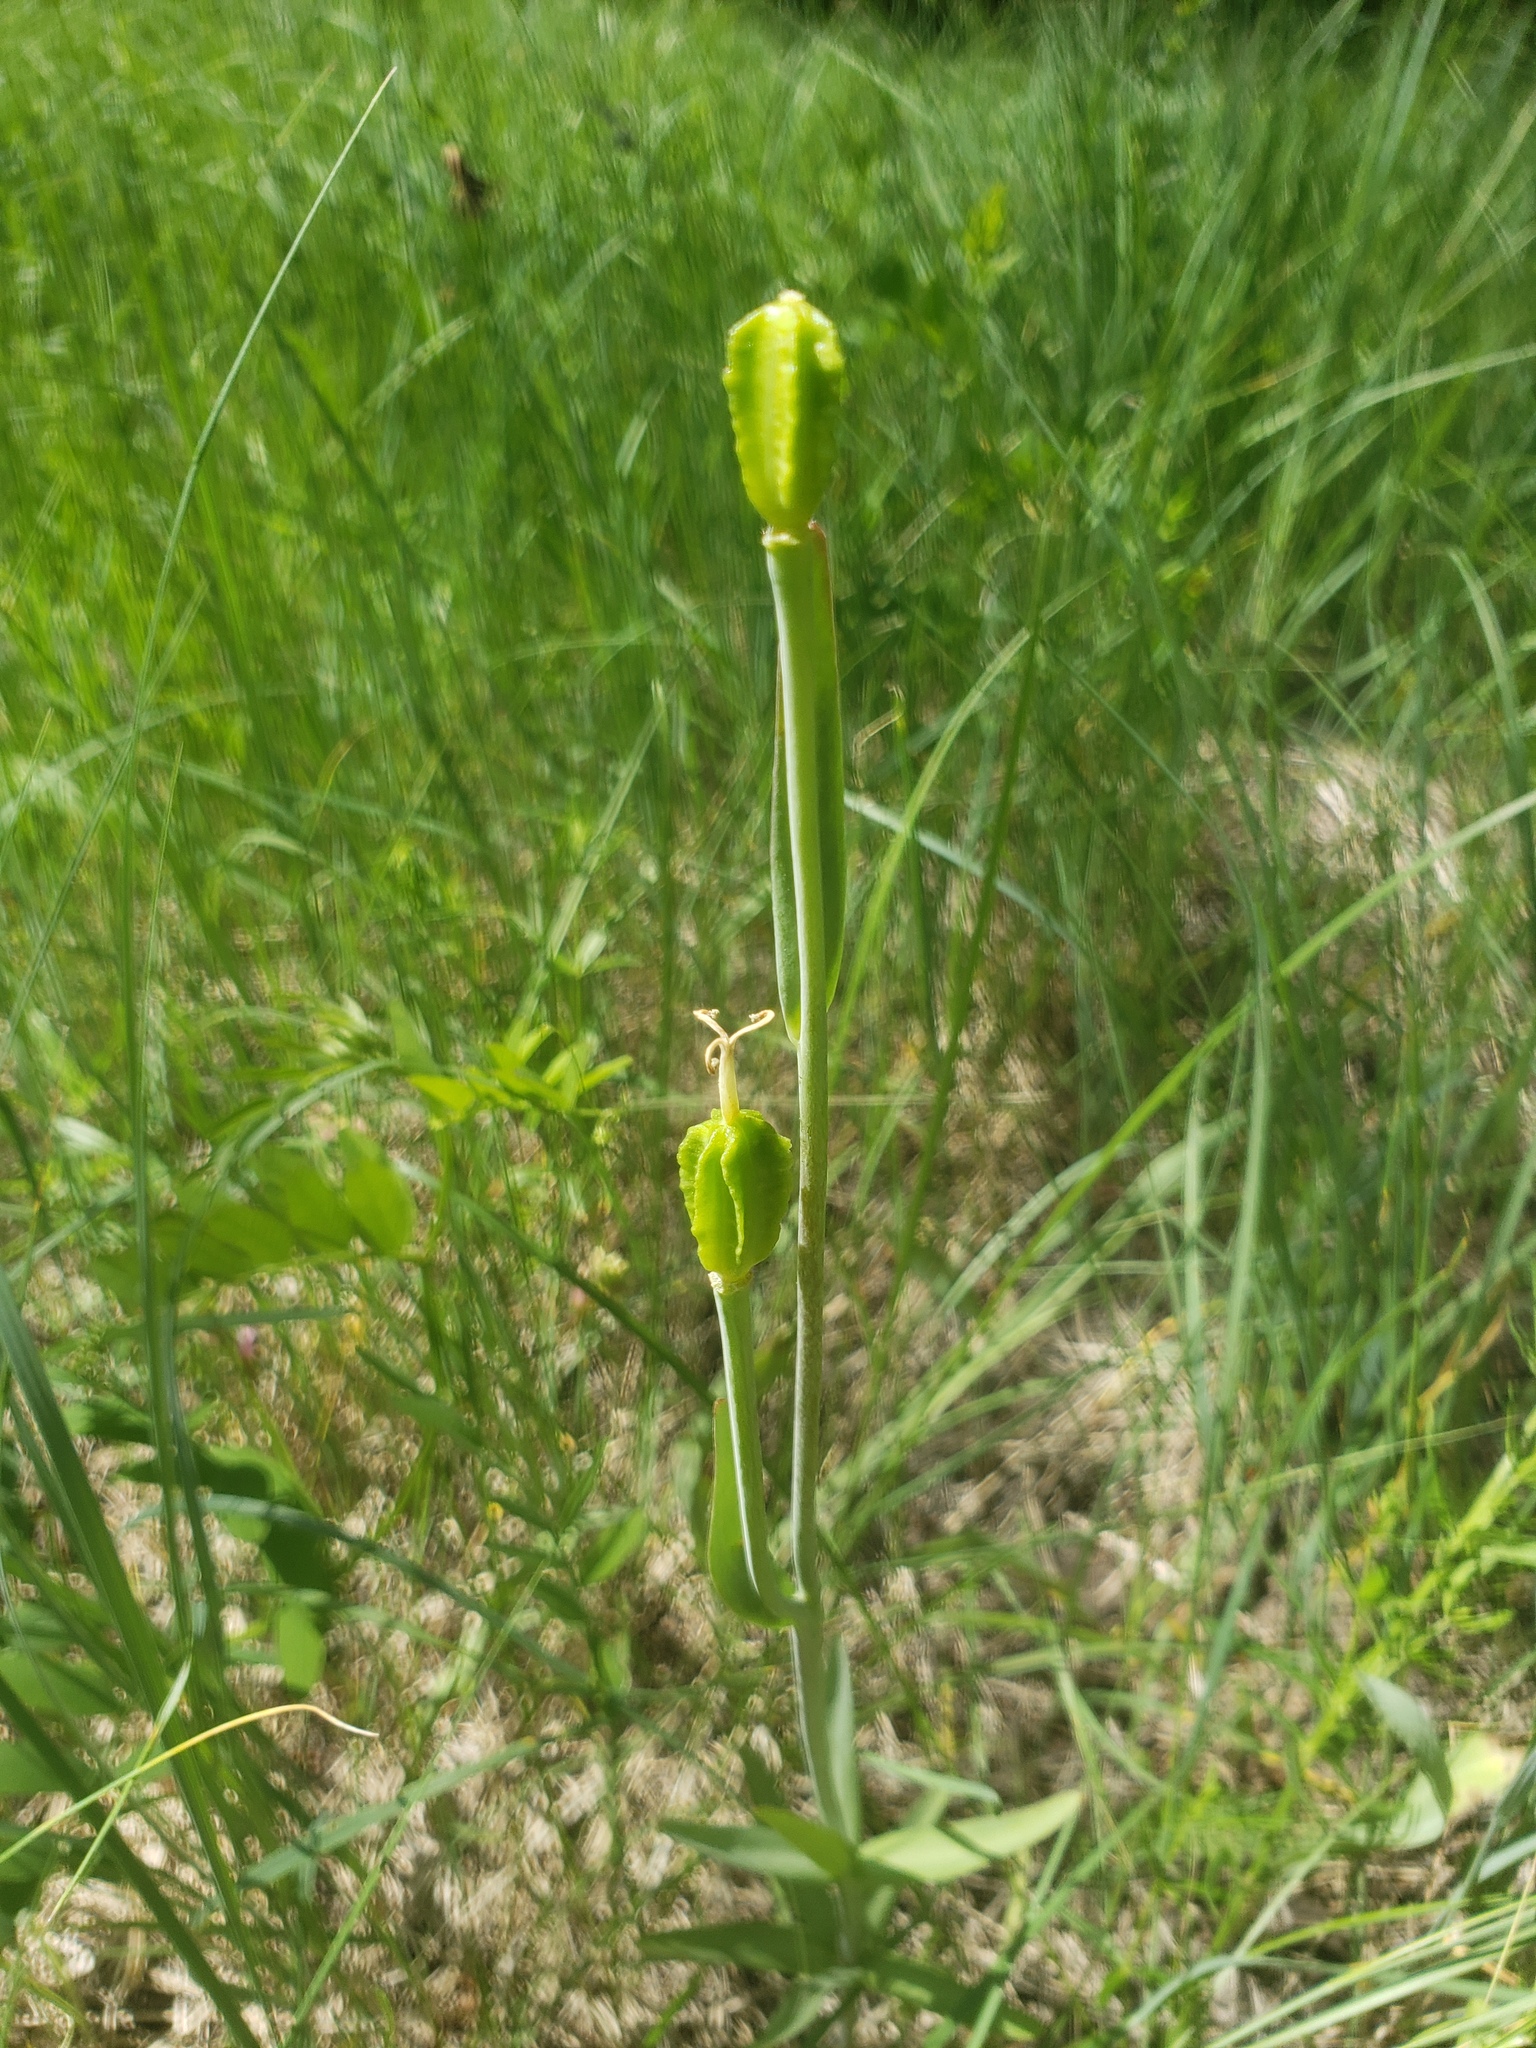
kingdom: Plantae
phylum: Tracheophyta
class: Liliopsida
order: Liliales
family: Liliaceae
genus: Fritillaria
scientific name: Fritillaria affinis
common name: Ojai fritillary
